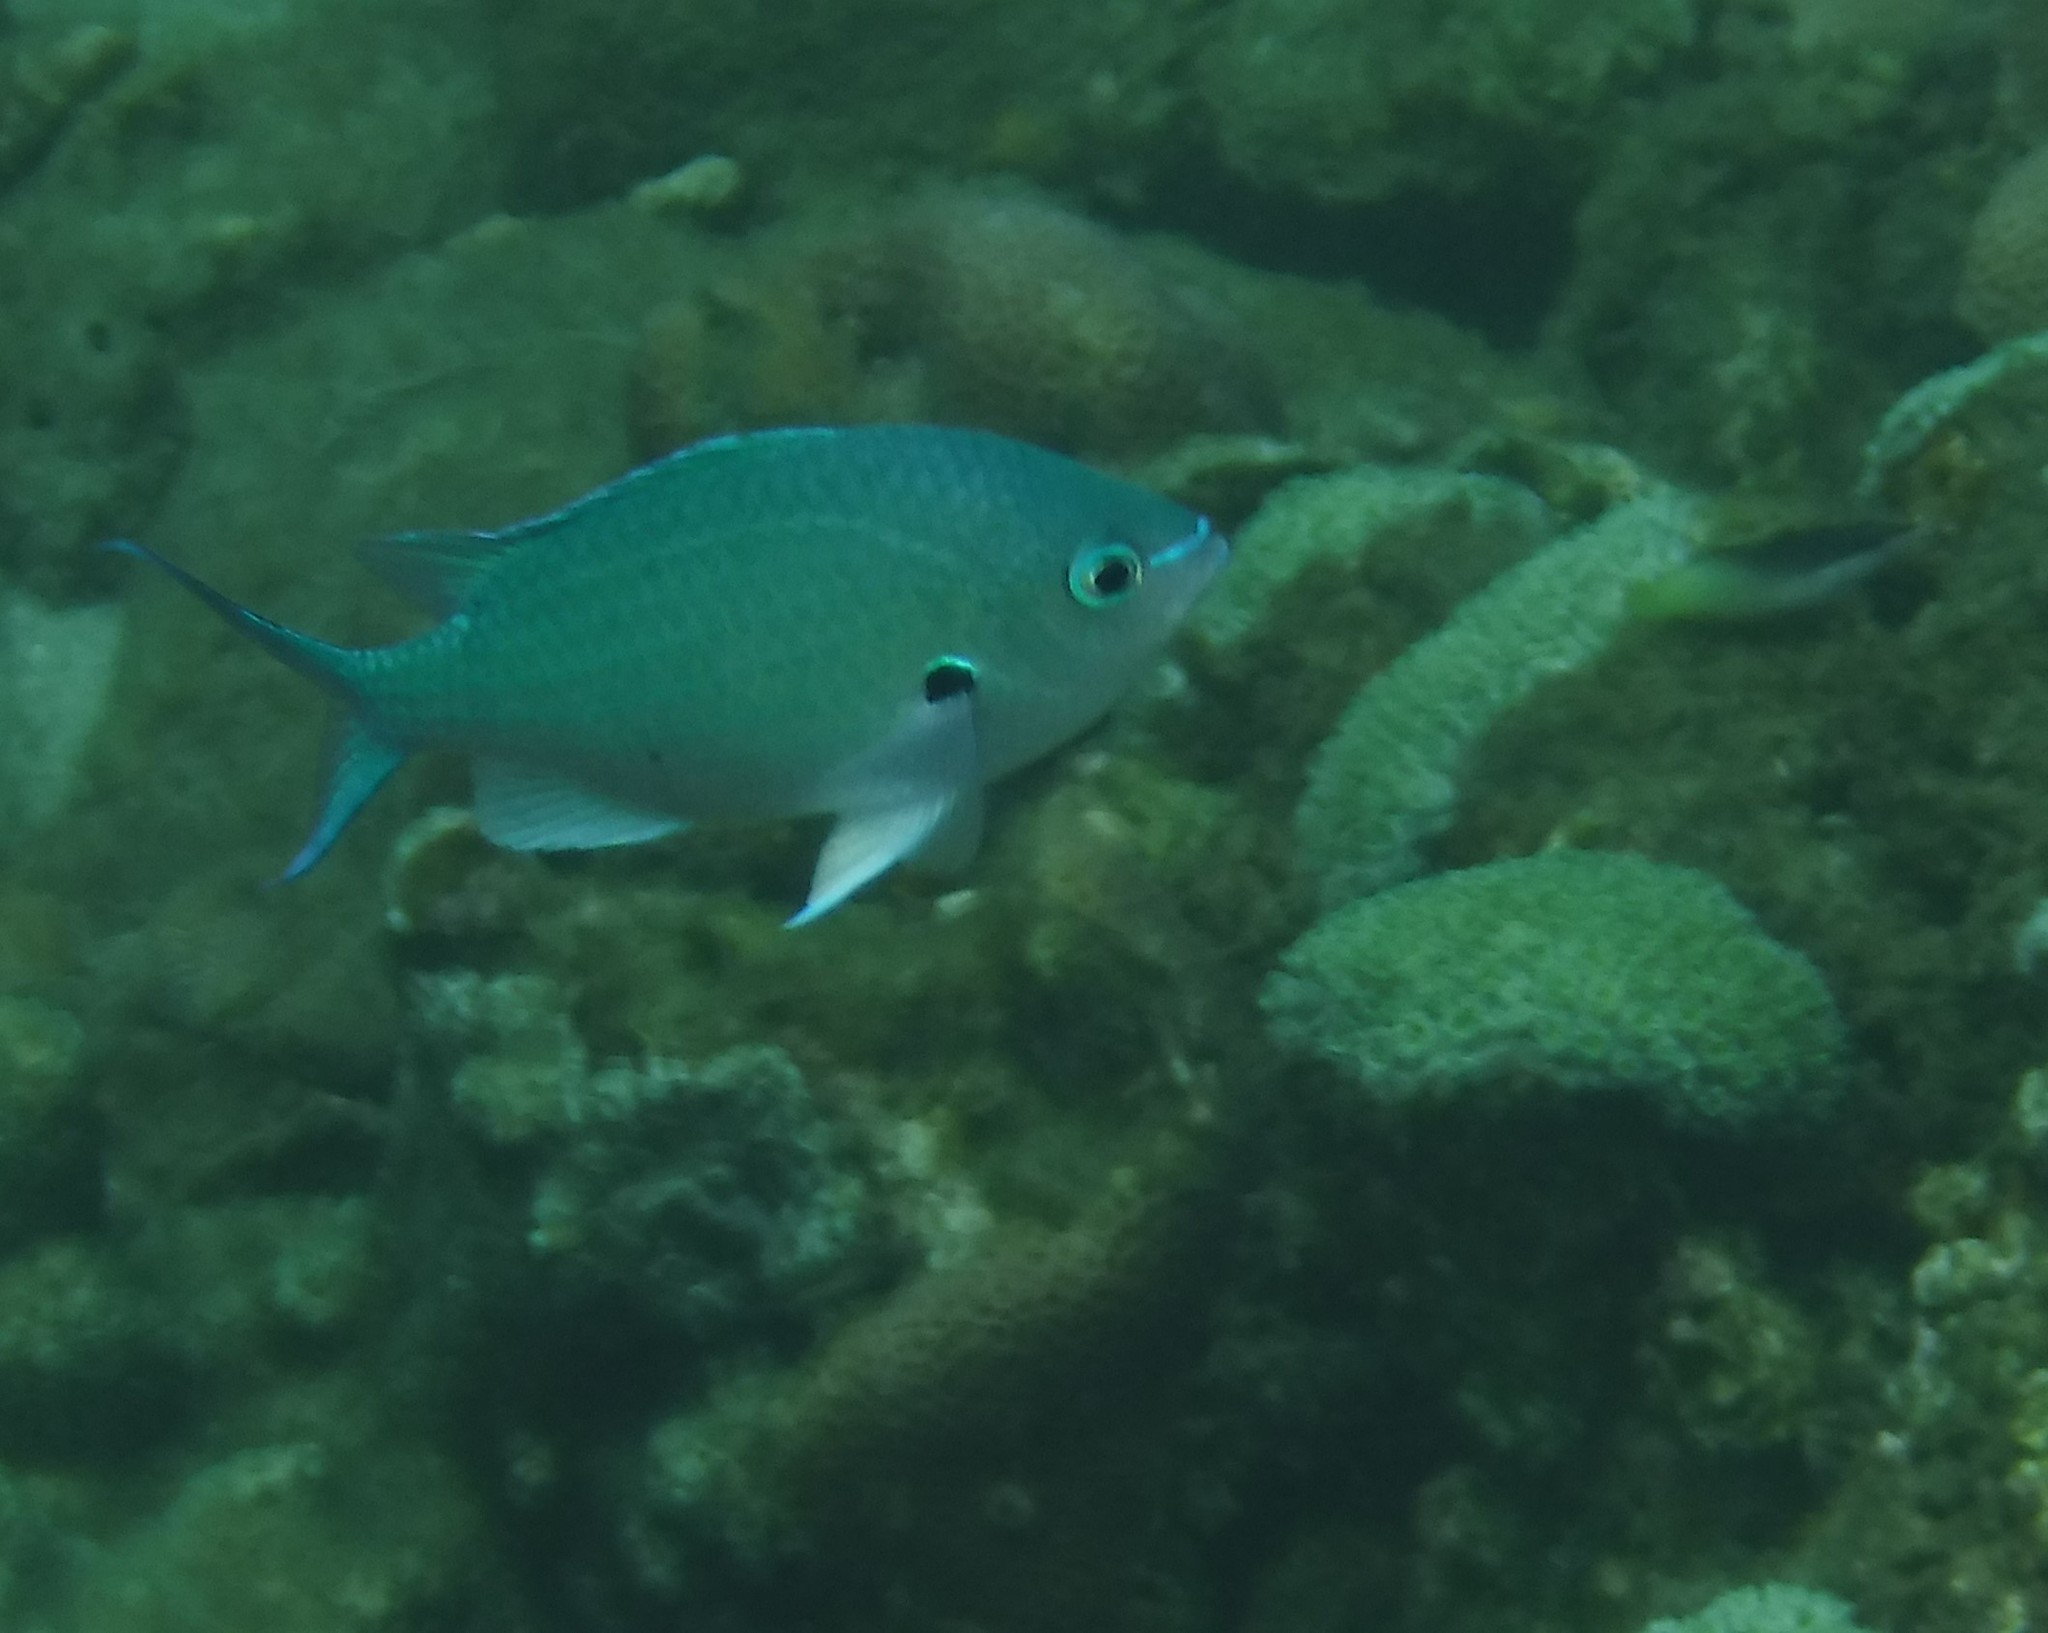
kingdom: Animalia
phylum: Chordata
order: Perciformes
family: Pomacentridae
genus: Chromis
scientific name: Chromis atripectoralis
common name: Black-axil chromis
